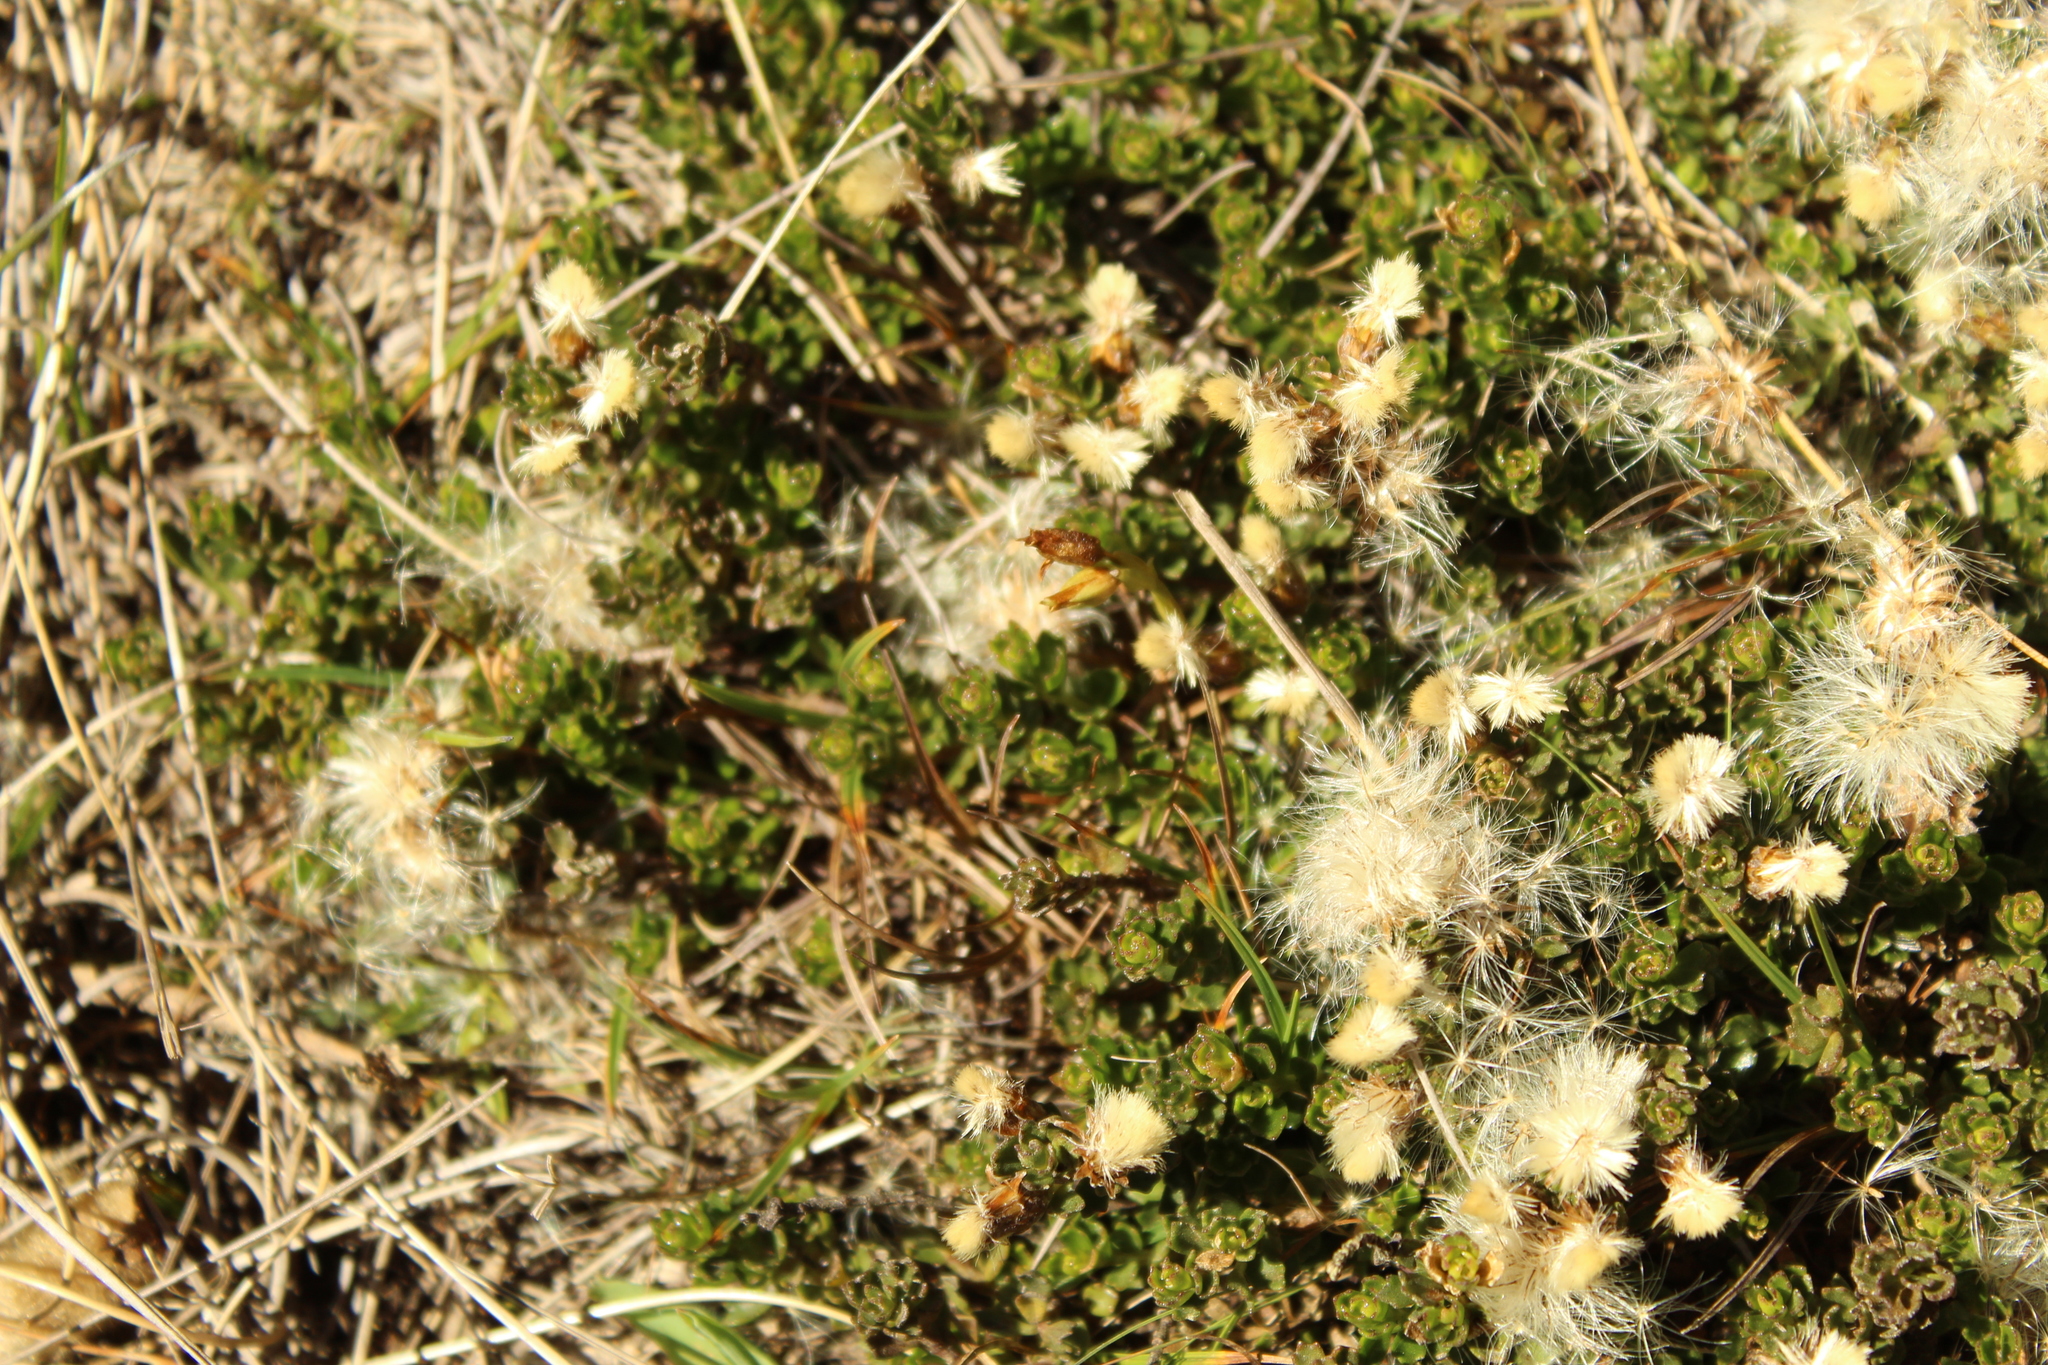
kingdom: Plantae
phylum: Tracheophyta
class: Magnoliopsida
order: Asterales
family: Asteraceae
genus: Baccharis
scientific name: Baccharis tricuneata
